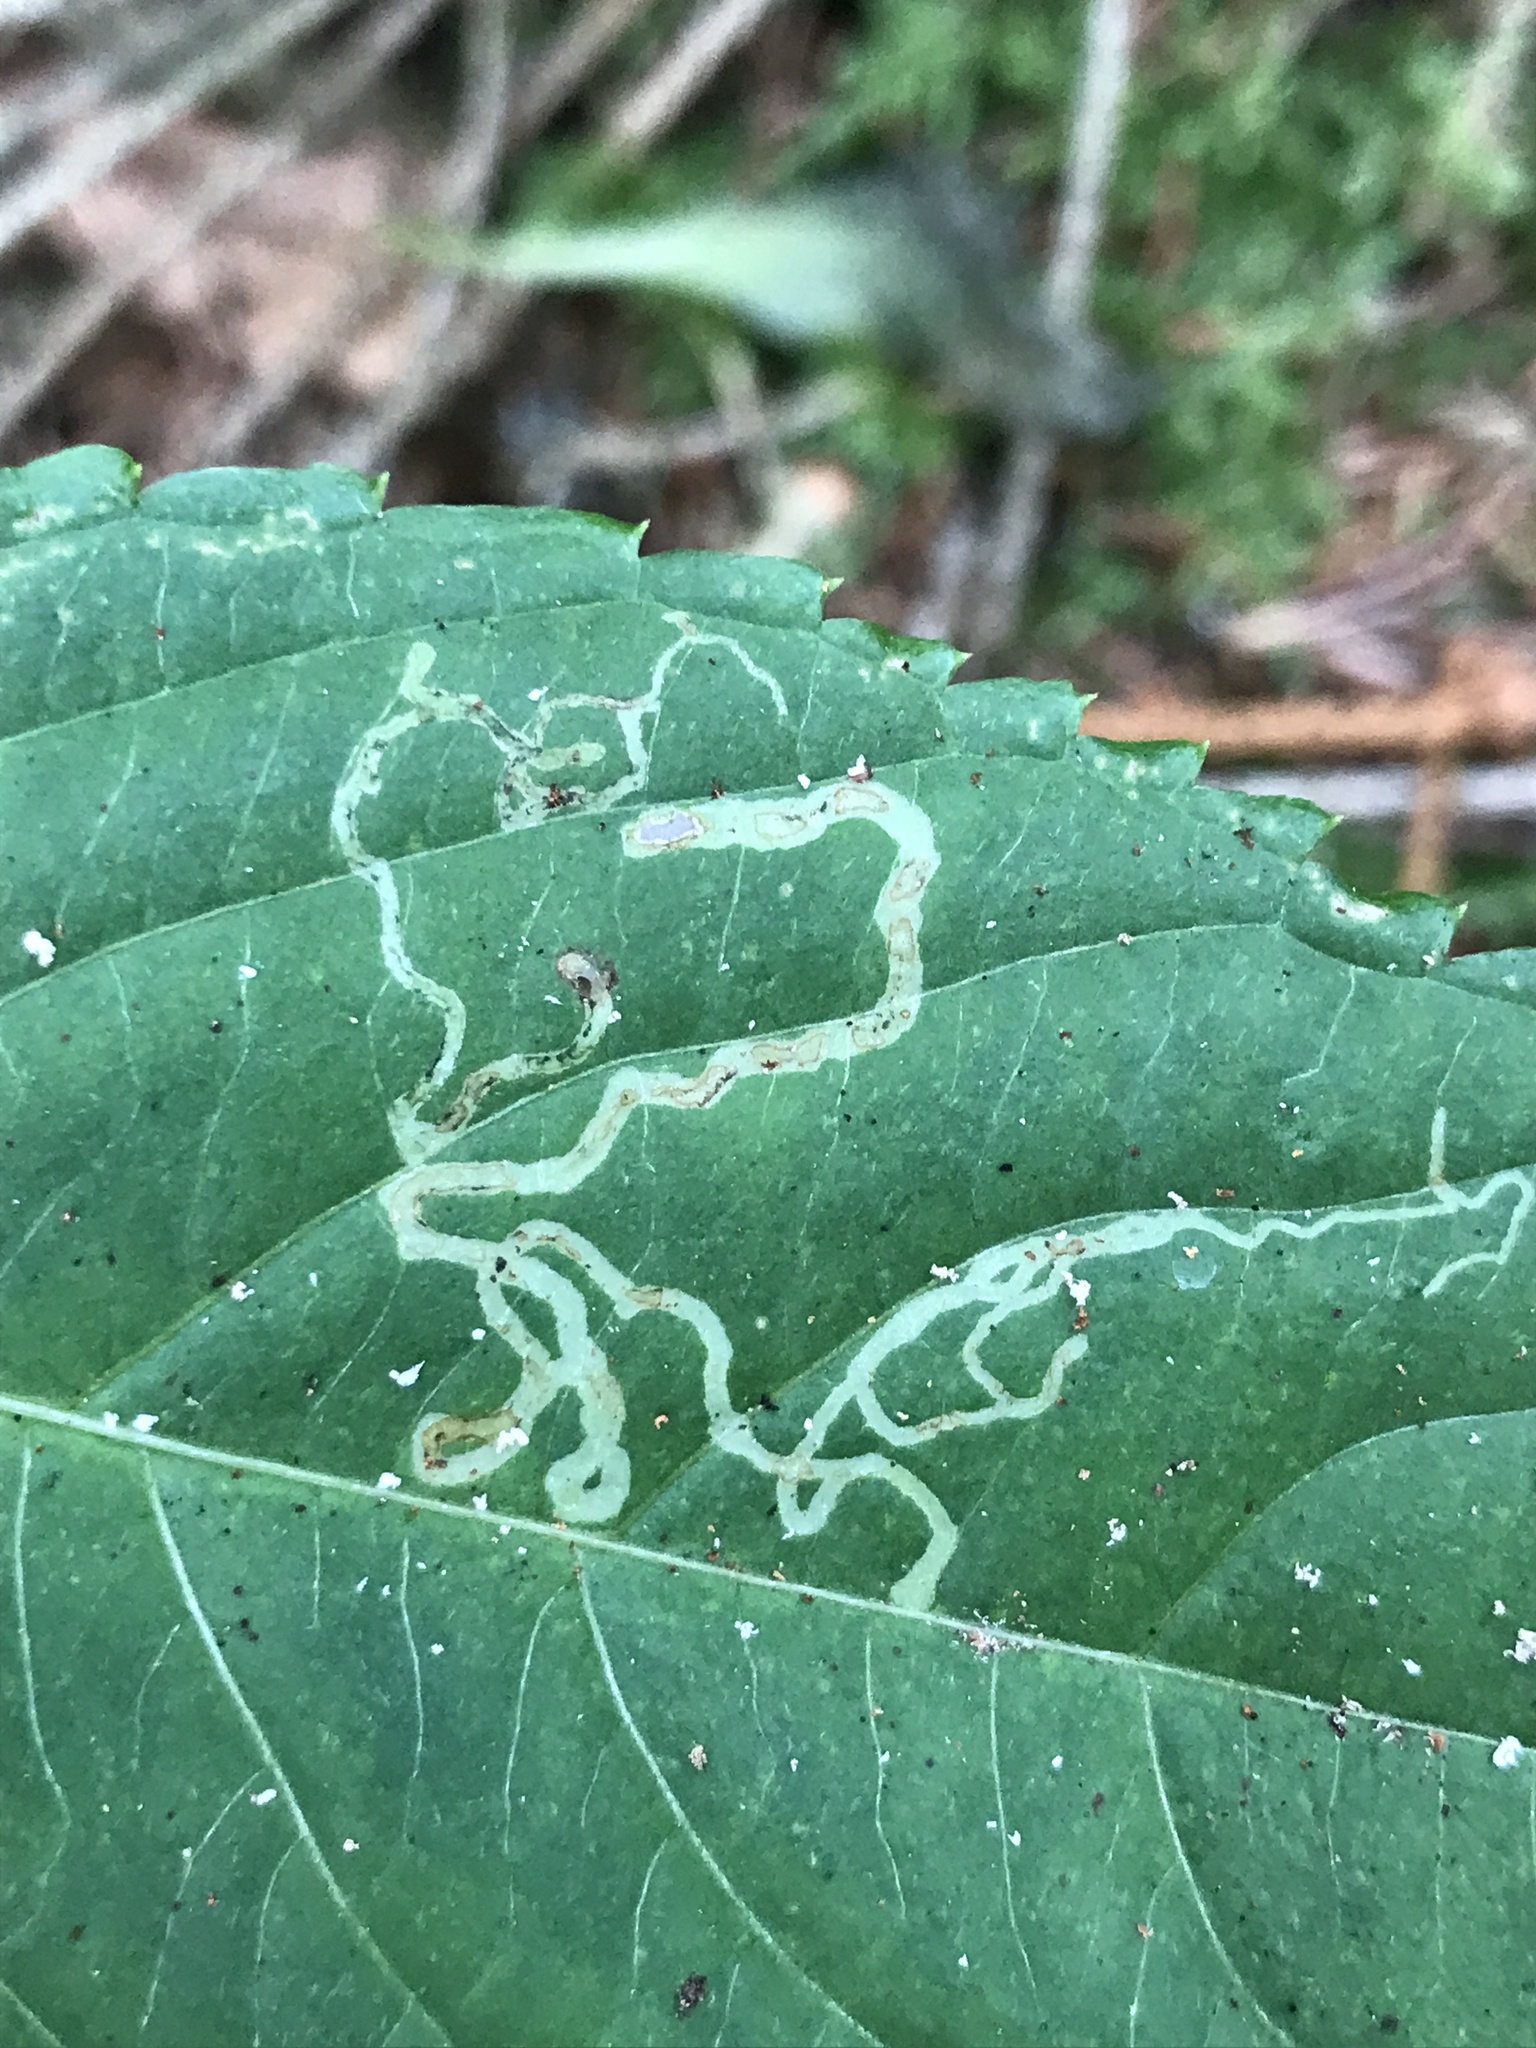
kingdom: Animalia
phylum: Arthropoda
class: Insecta
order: Diptera
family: Agromyzidae
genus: Phytoliriomyza
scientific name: Phytoliriomyza melampyga
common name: Jewelweed leaf-miner fly
